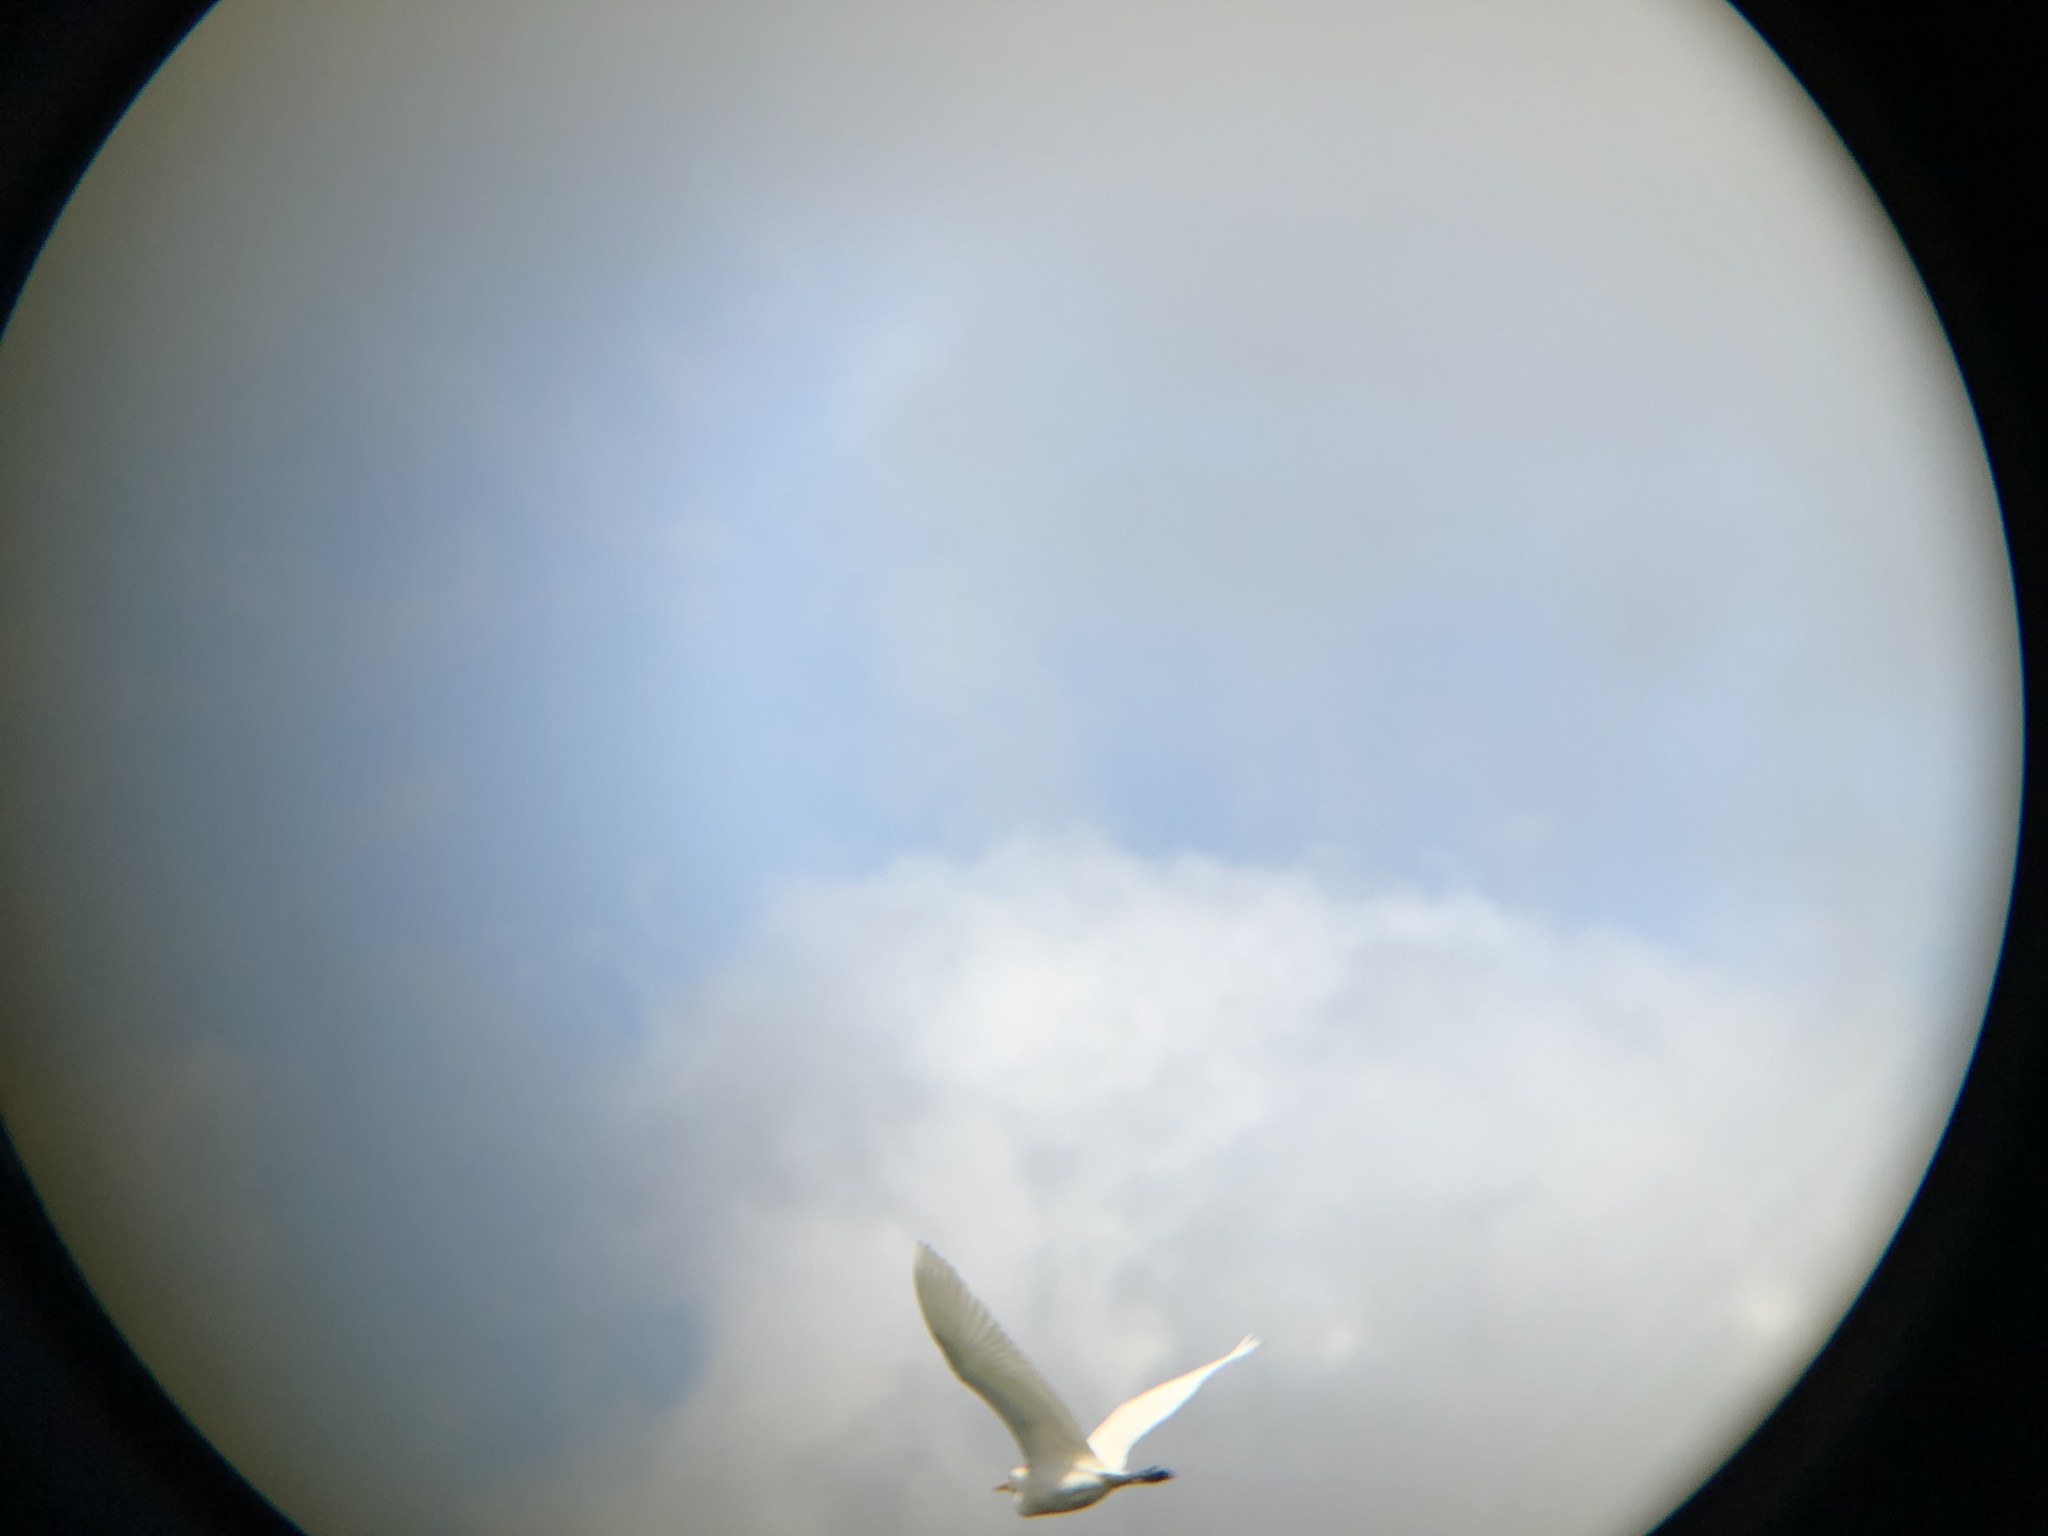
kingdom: Animalia
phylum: Chordata
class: Aves
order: Pelecaniformes
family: Ardeidae
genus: Bubulcus
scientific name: Bubulcus ibis
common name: Cattle egret
